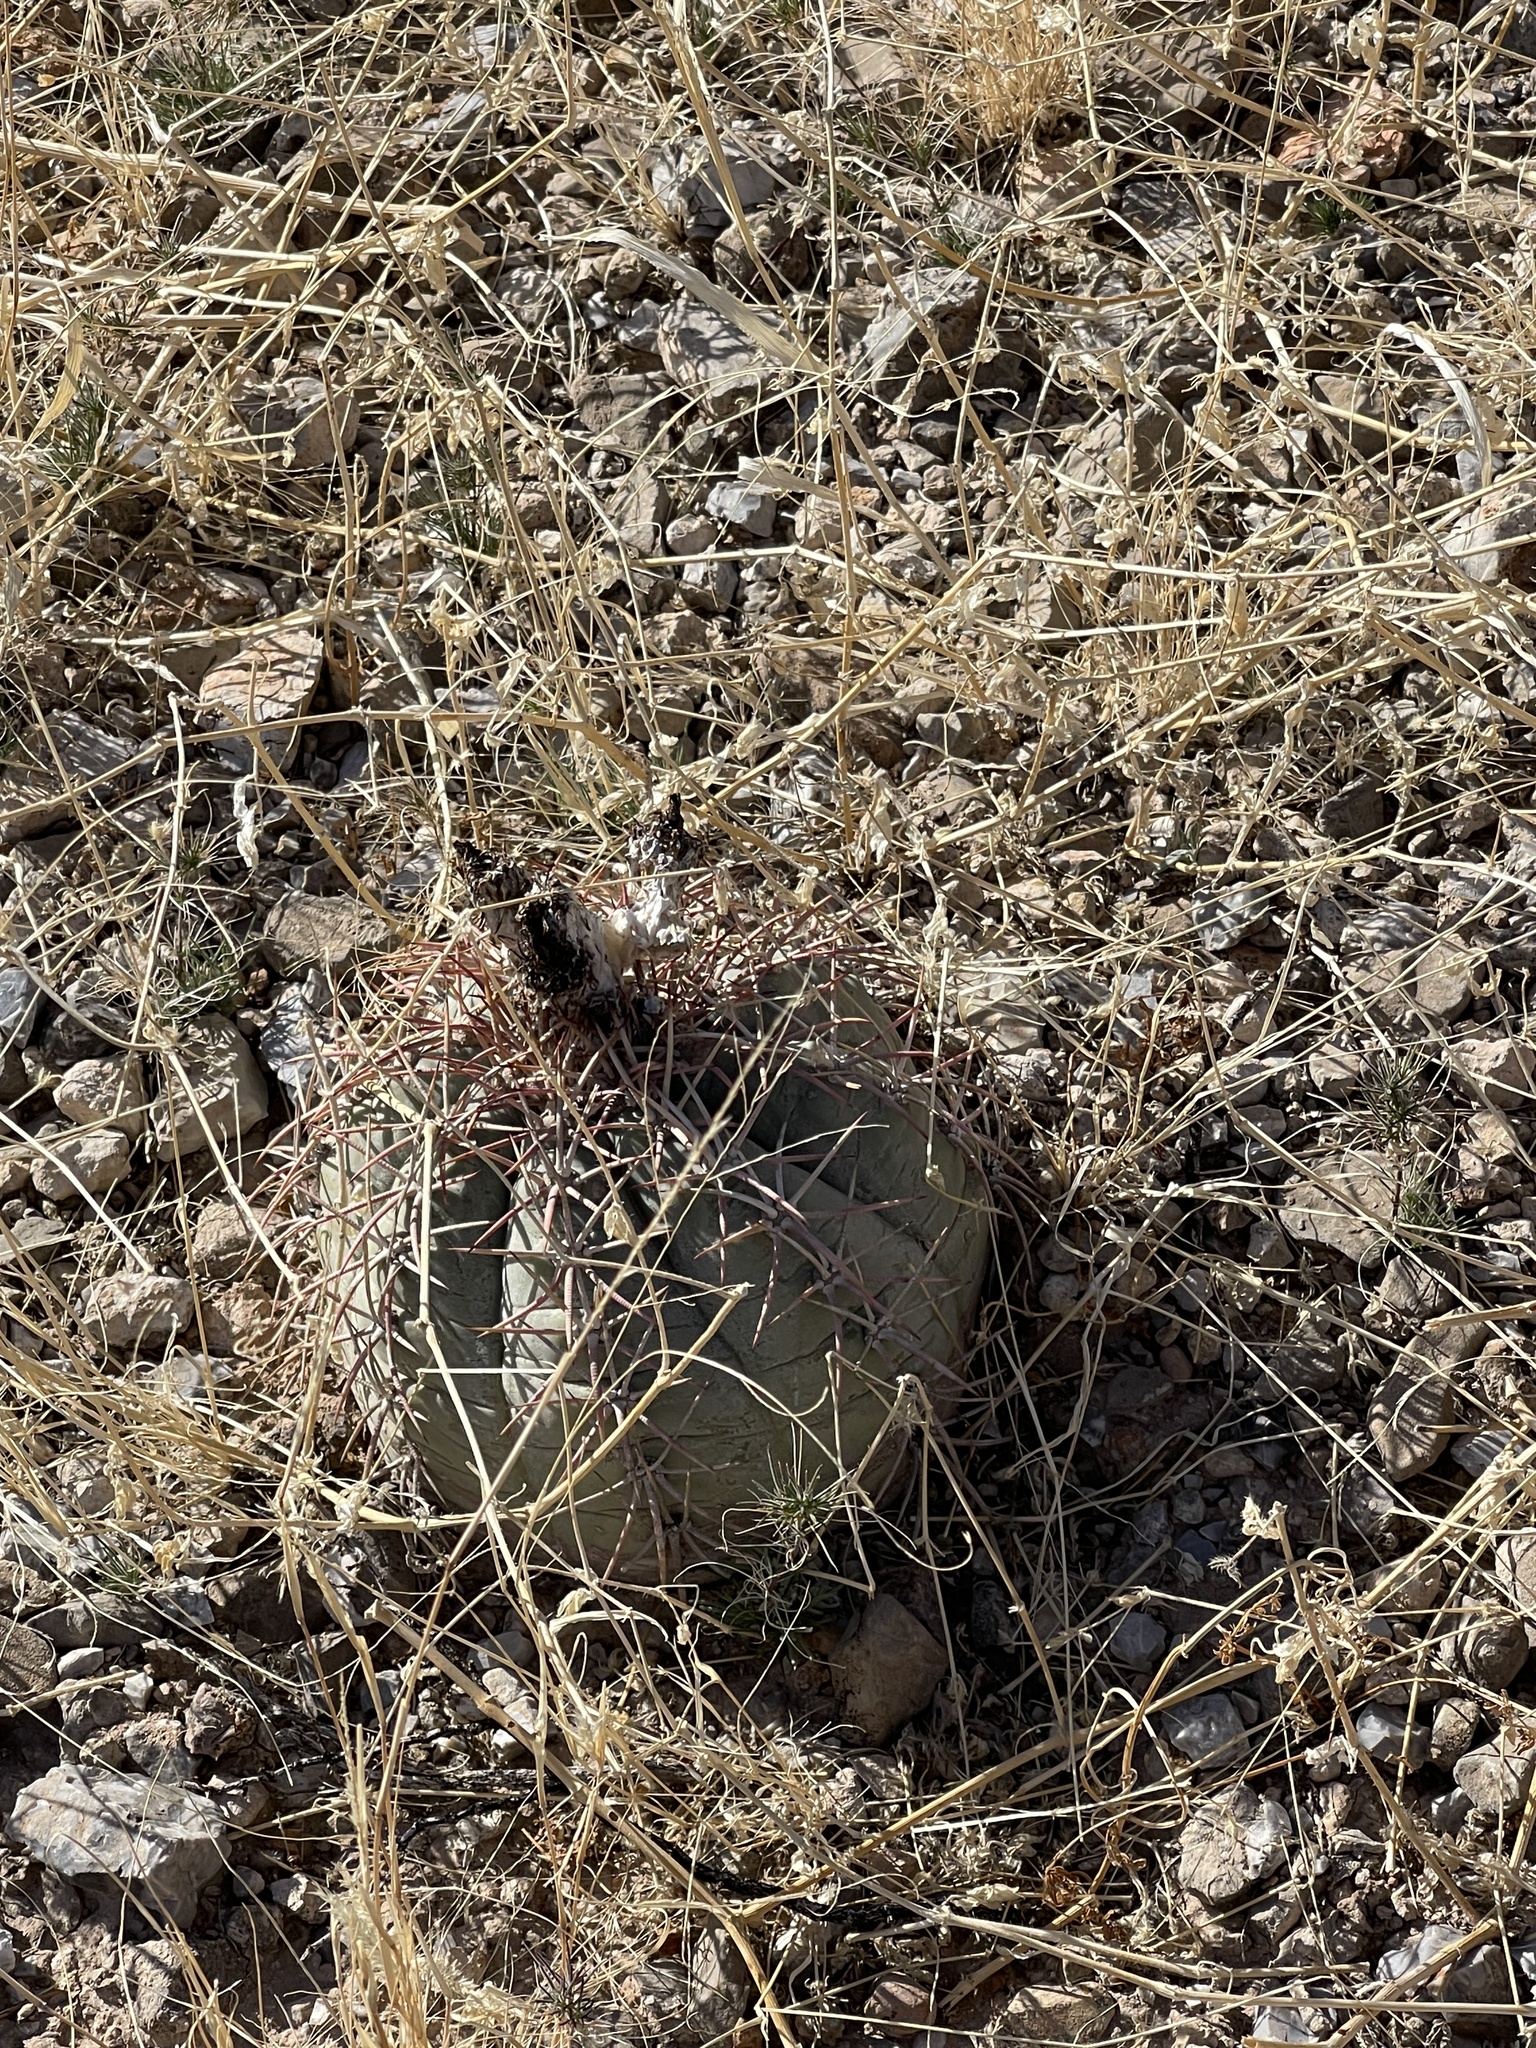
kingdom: Plantae
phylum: Tracheophyta
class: Magnoliopsida
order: Caryophyllales
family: Cactaceae
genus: Echinocactus
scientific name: Echinocactus horizonthalonius
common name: Devilshead
